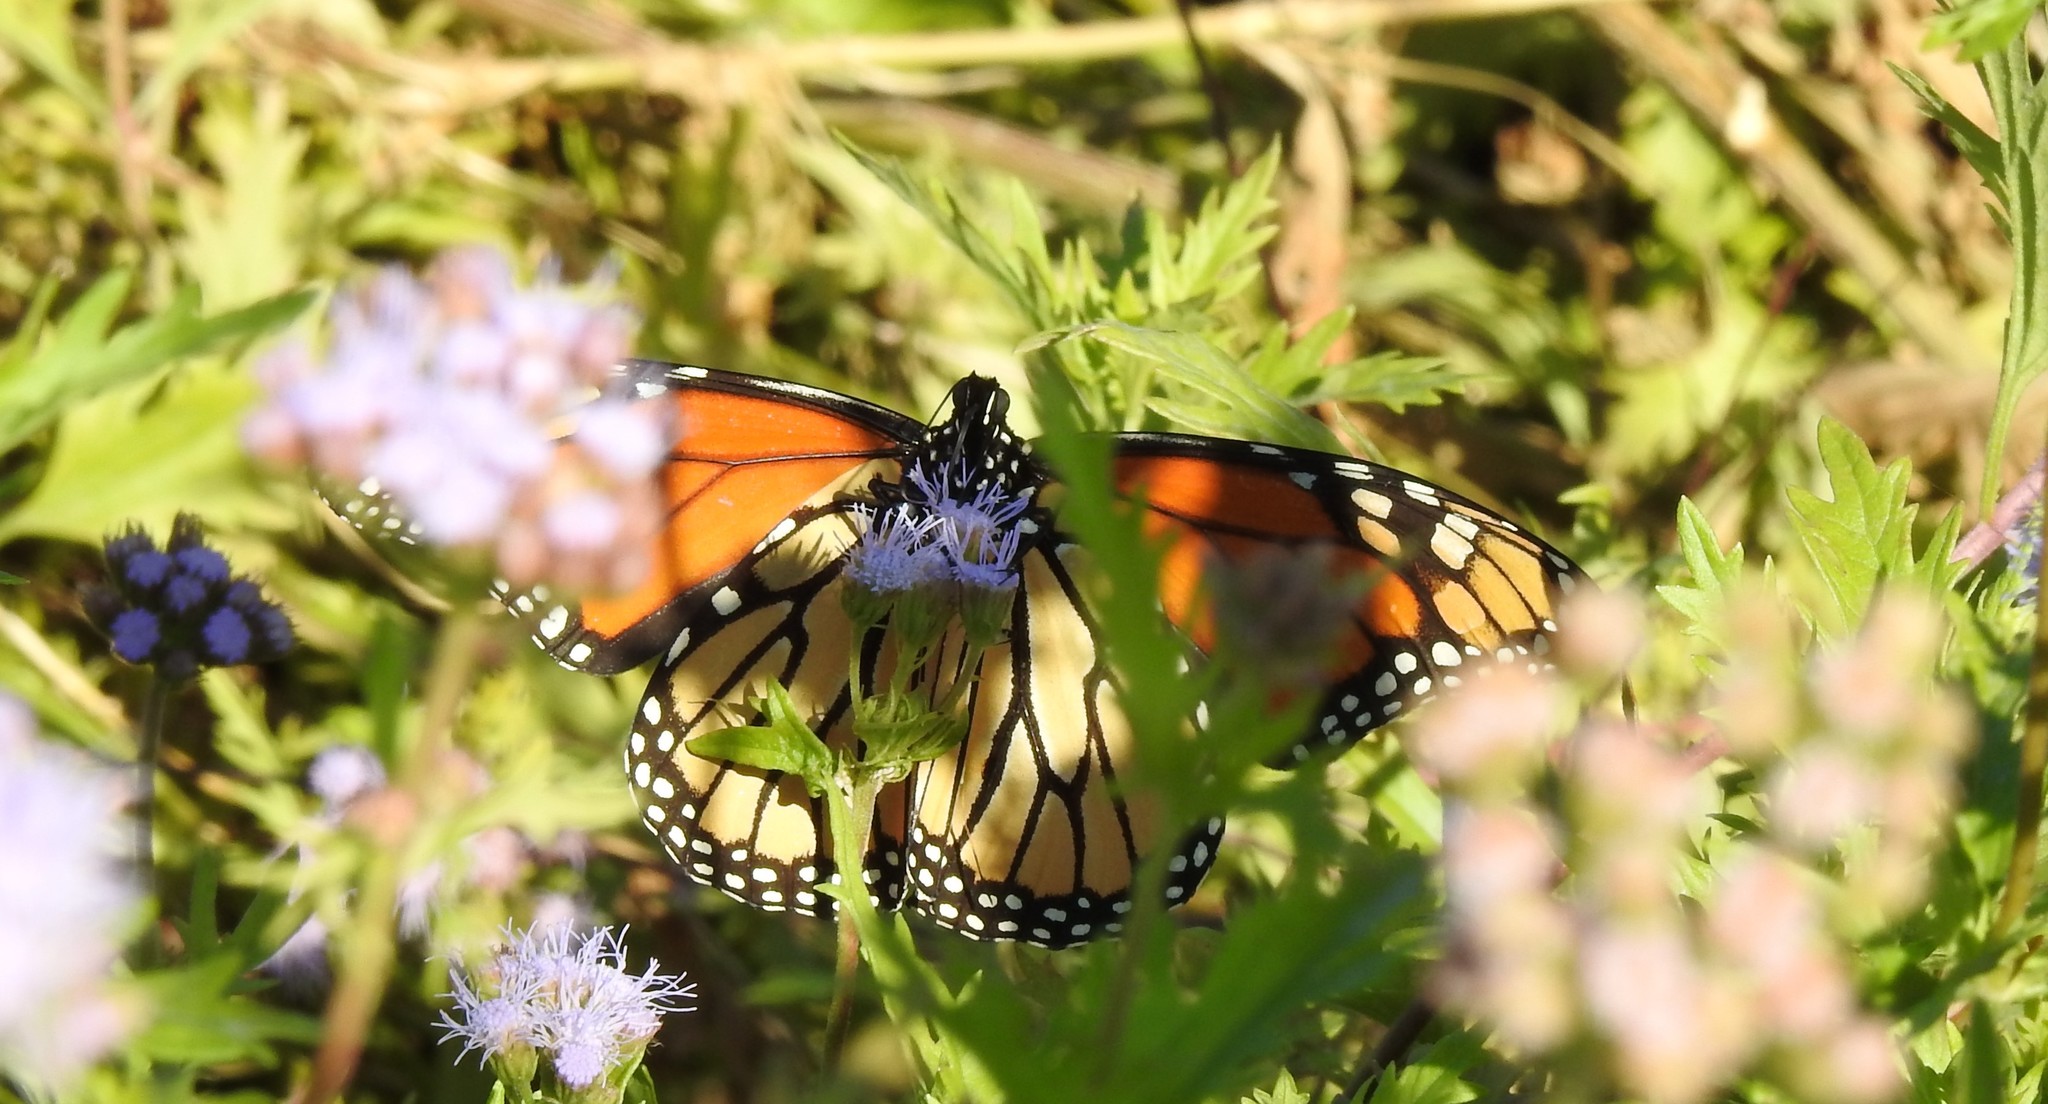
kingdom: Animalia
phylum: Arthropoda
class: Insecta
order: Lepidoptera
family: Nymphalidae
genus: Danaus
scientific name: Danaus plexippus
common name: Monarch
